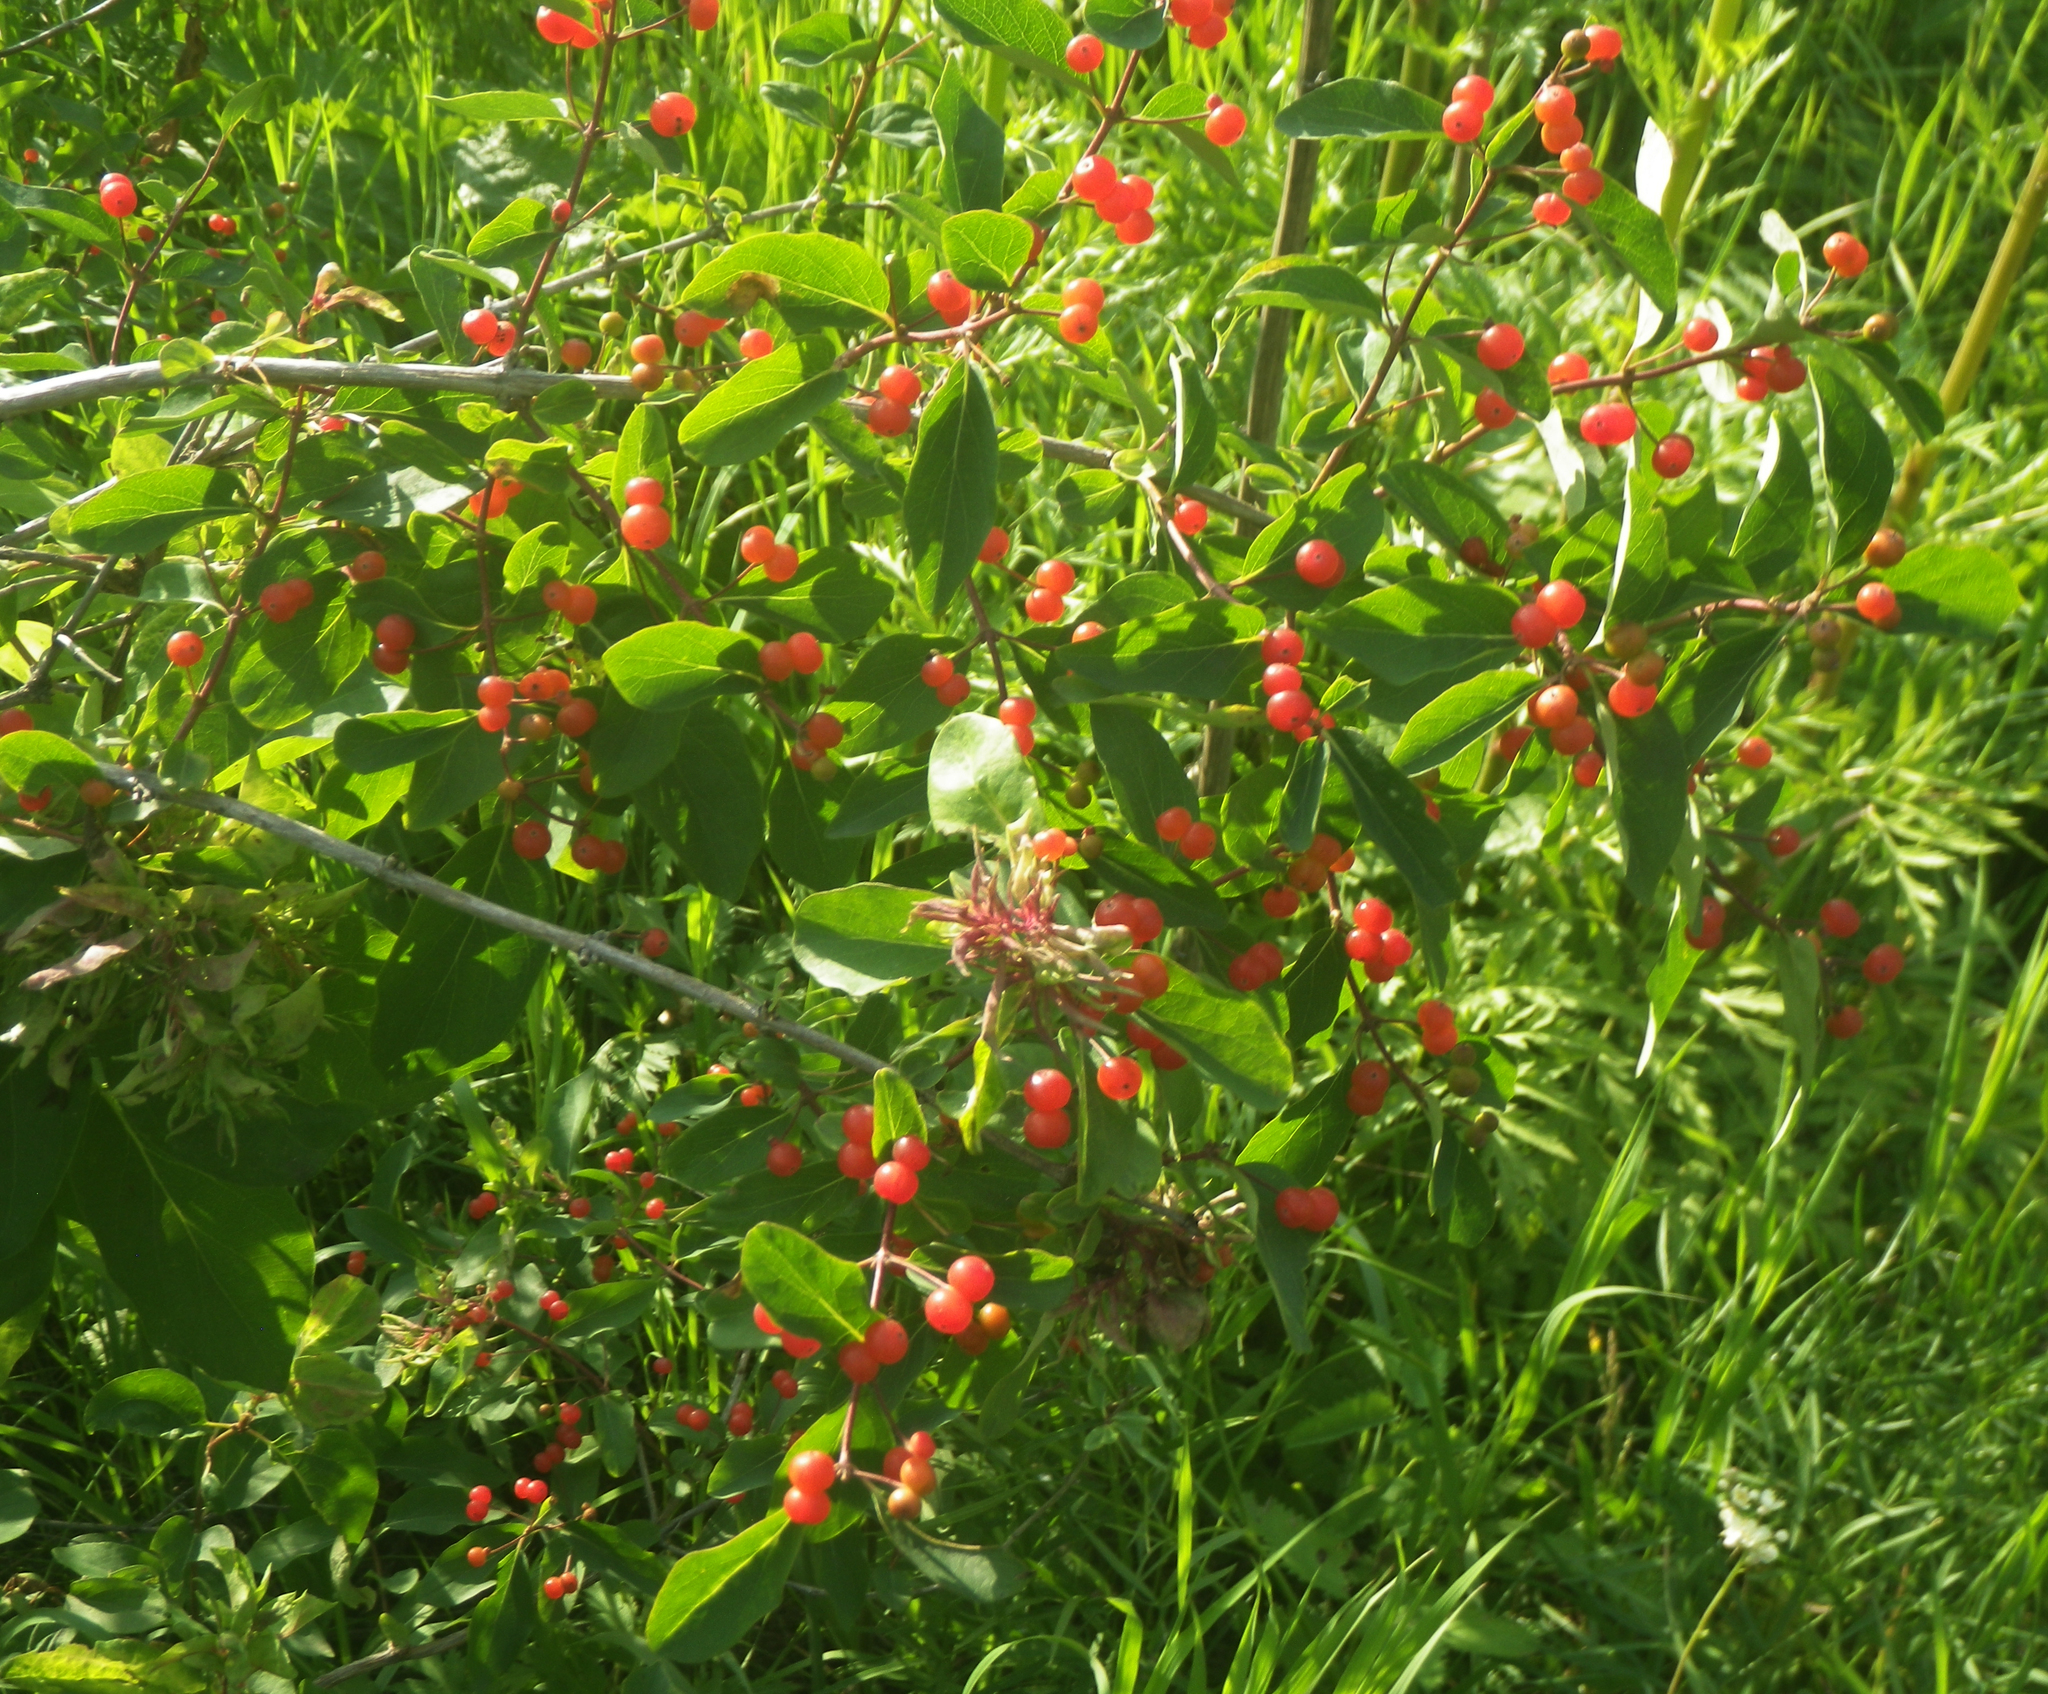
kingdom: Plantae
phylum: Tracheophyta
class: Magnoliopsida
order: Dipsacales
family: Caprifoliaceae
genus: Lonicera
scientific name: Lonicera tatarica
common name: Tatarian honeysuckle
